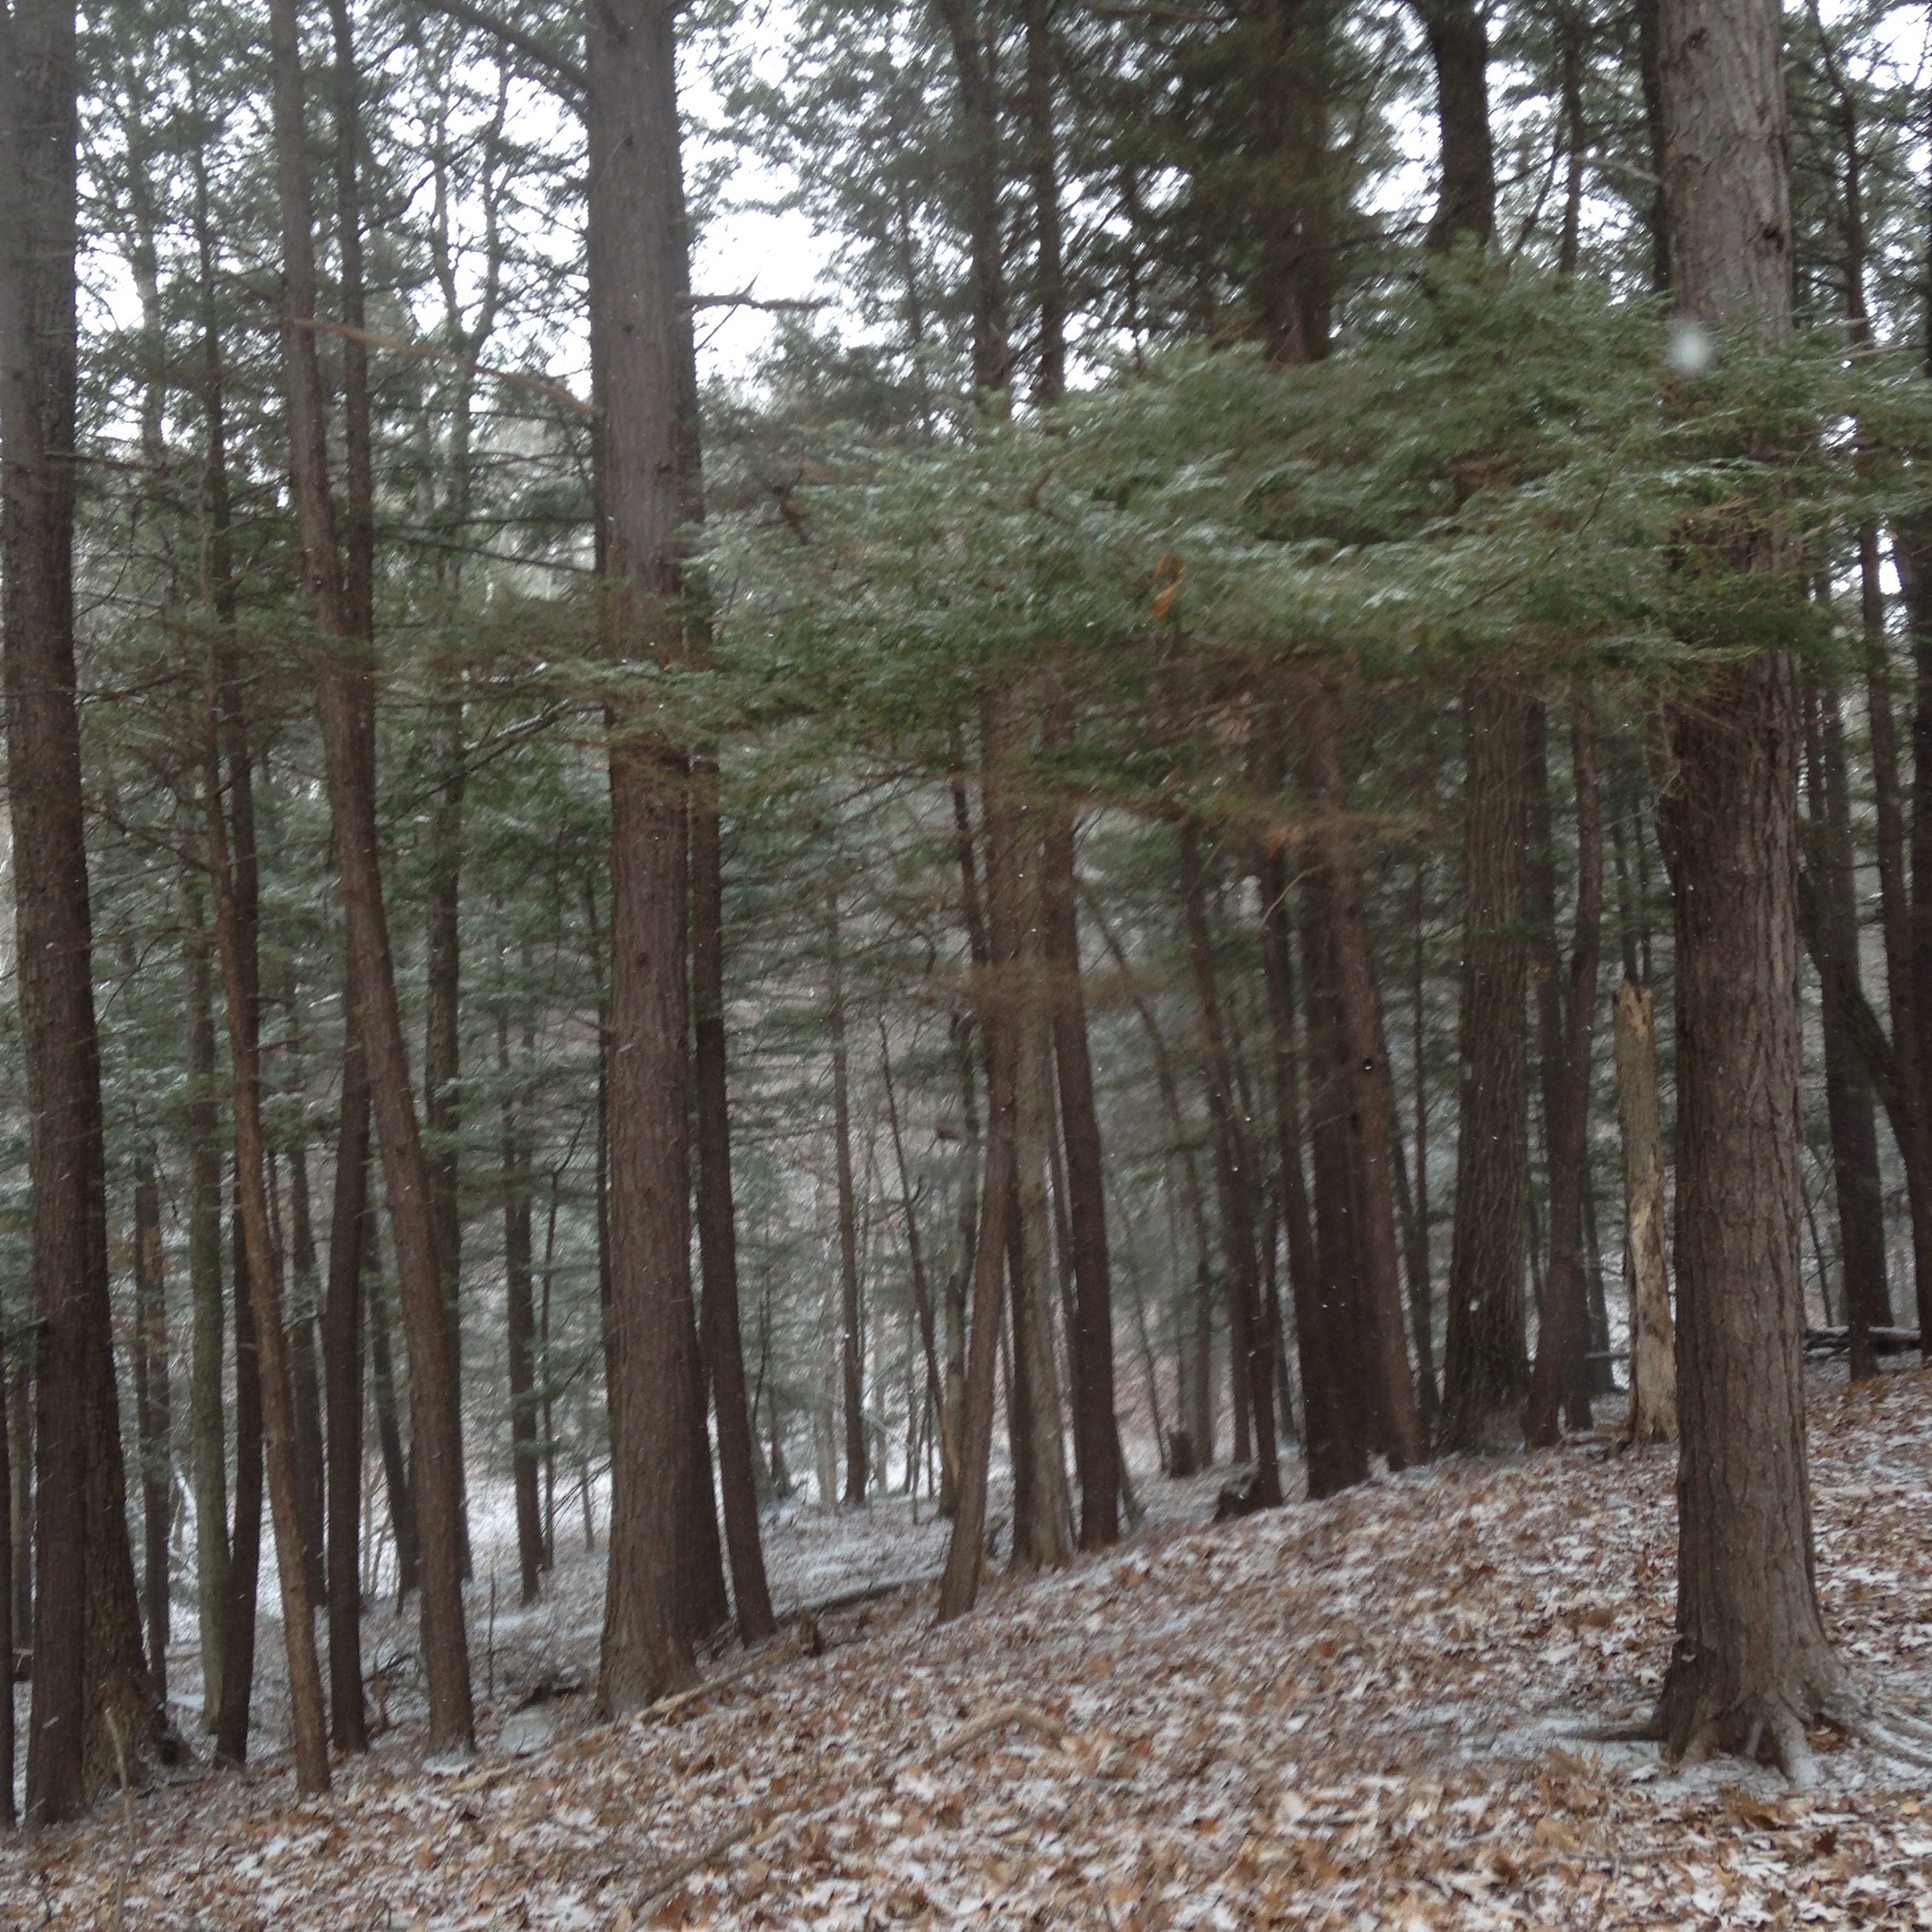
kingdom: Plantae
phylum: Tracheophyta
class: Pinopsida
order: Pinales
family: Pinaceae
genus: Tsuga
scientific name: Tsuga canadensis
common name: Eastern hemlock
